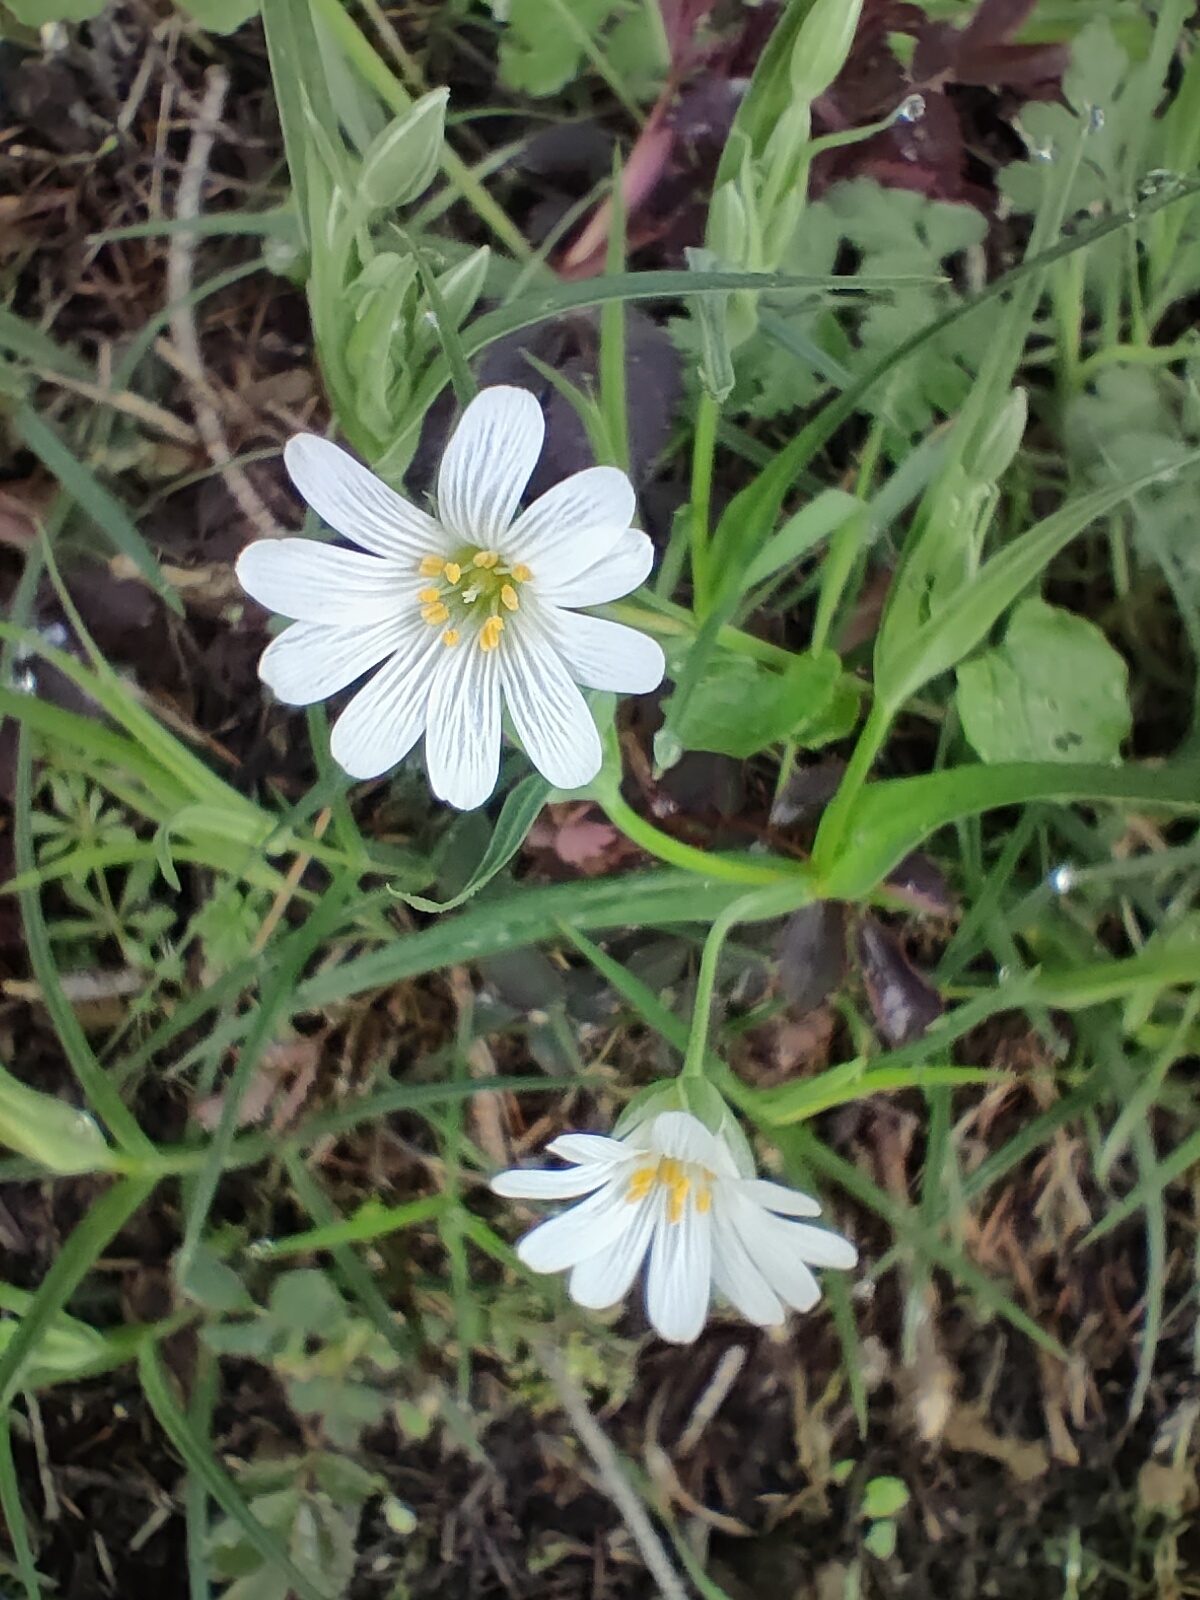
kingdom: Plantae
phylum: Tracheophyta
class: Magnoliopsida
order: Caryophyllales
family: Caryophyllaceae
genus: Rabelera
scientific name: Rabelera holostea
